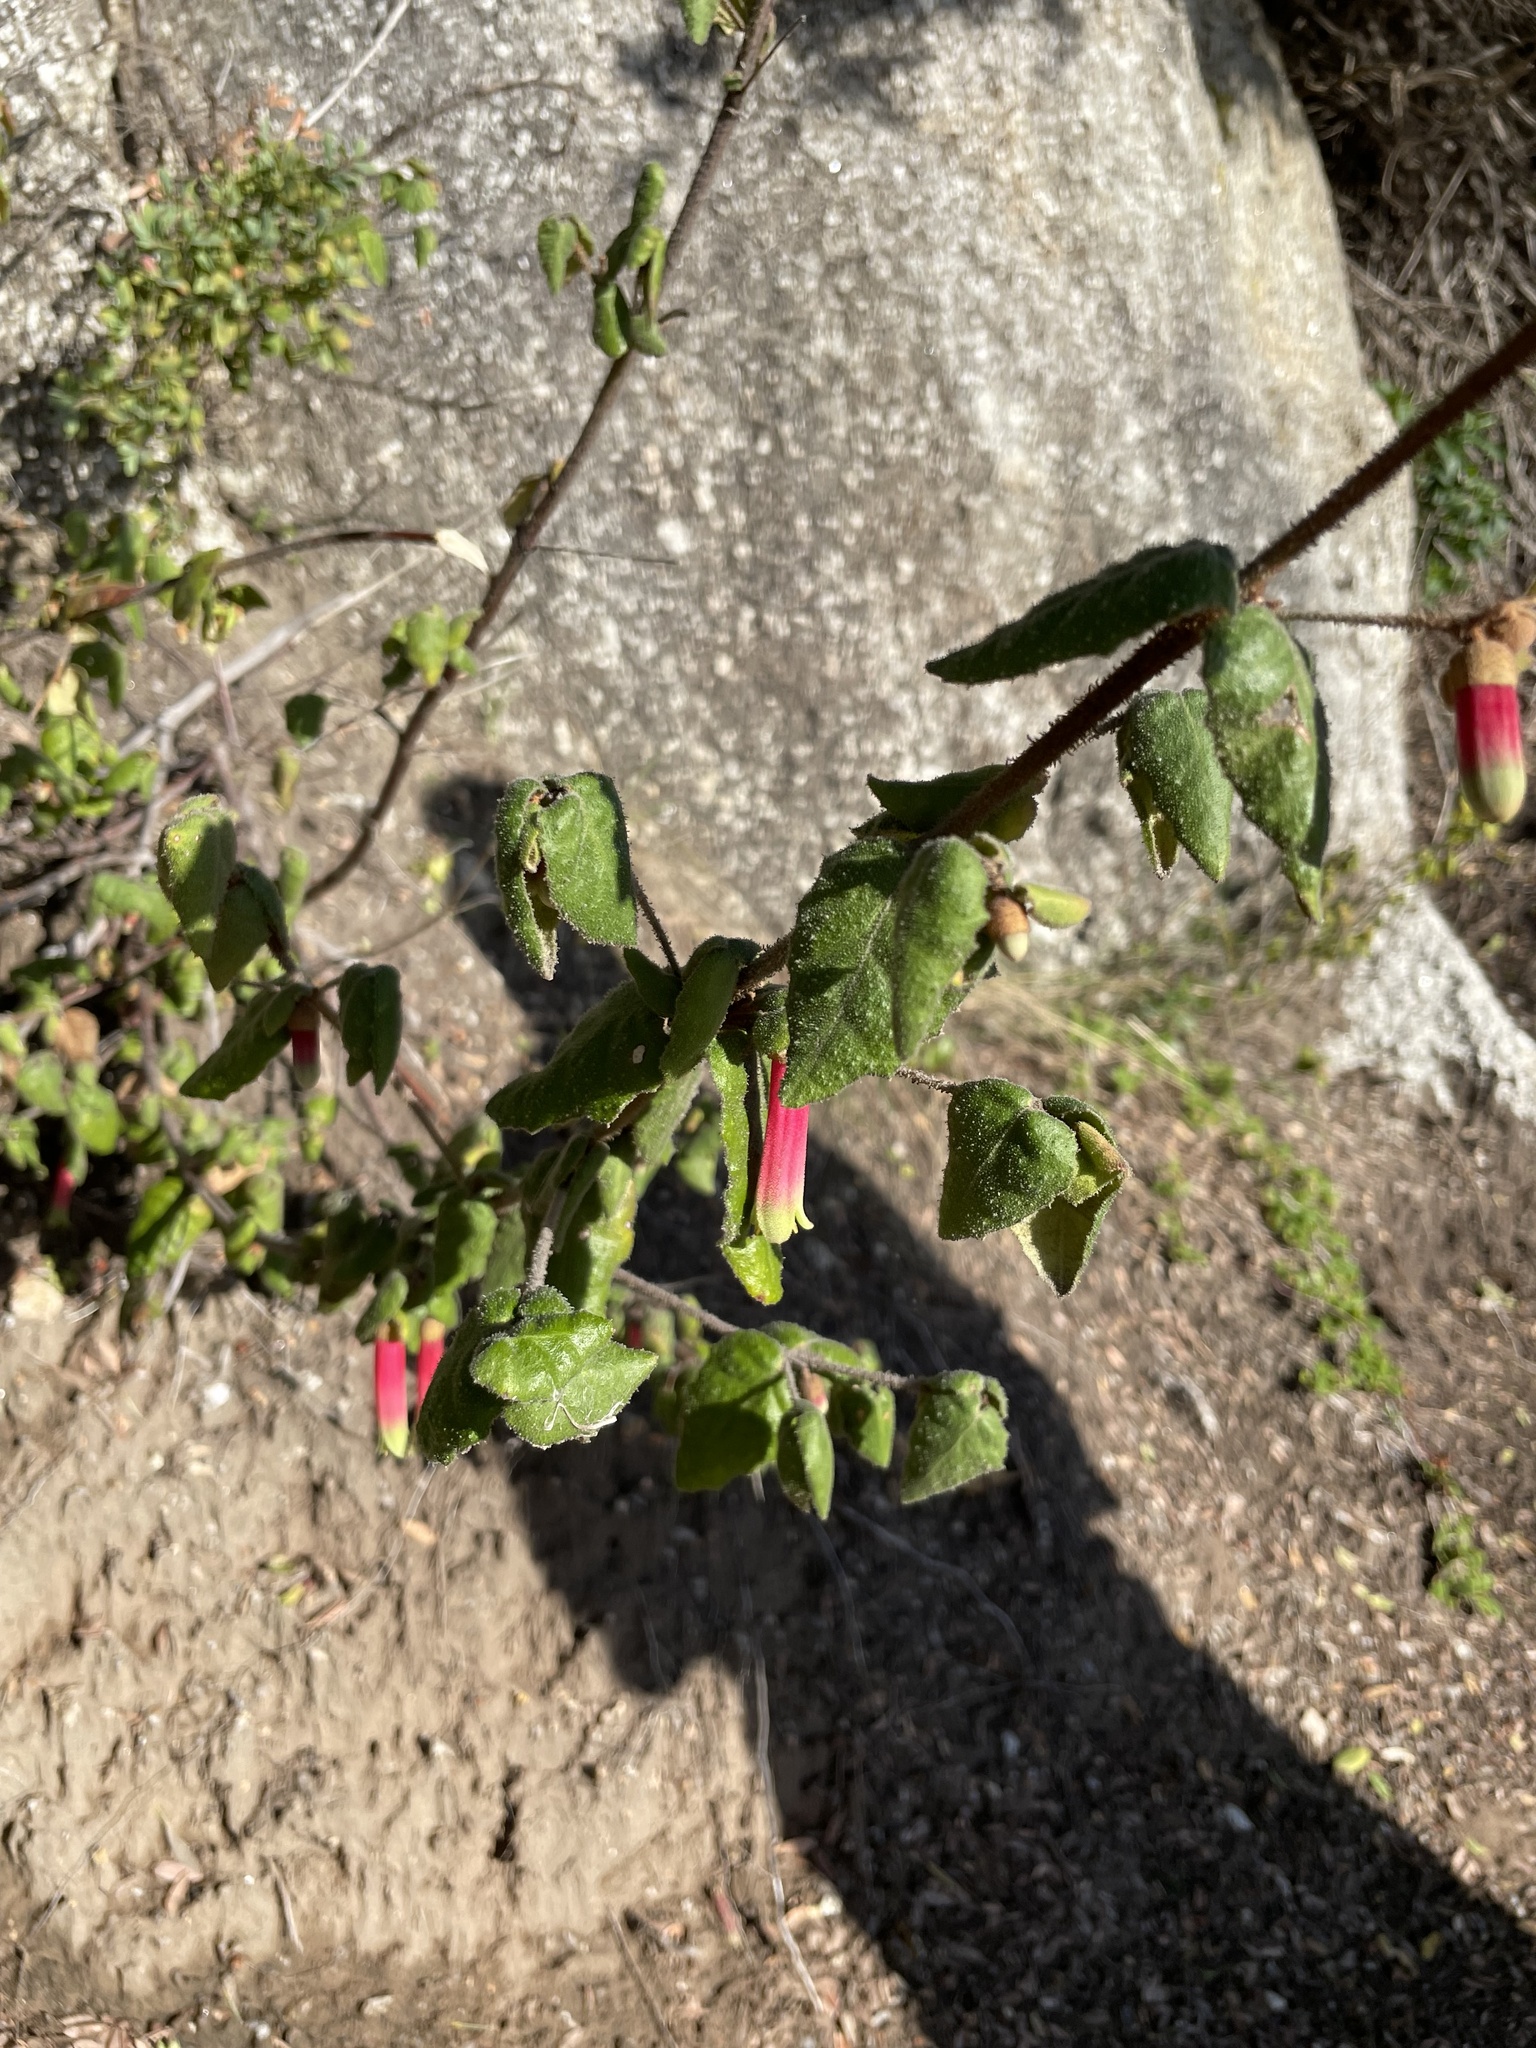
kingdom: Plantae
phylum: Tracheophyta
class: Magnoliopsida
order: Sapindales
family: Rutaceae
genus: Correa
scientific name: Correa reflexa
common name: Common correa
